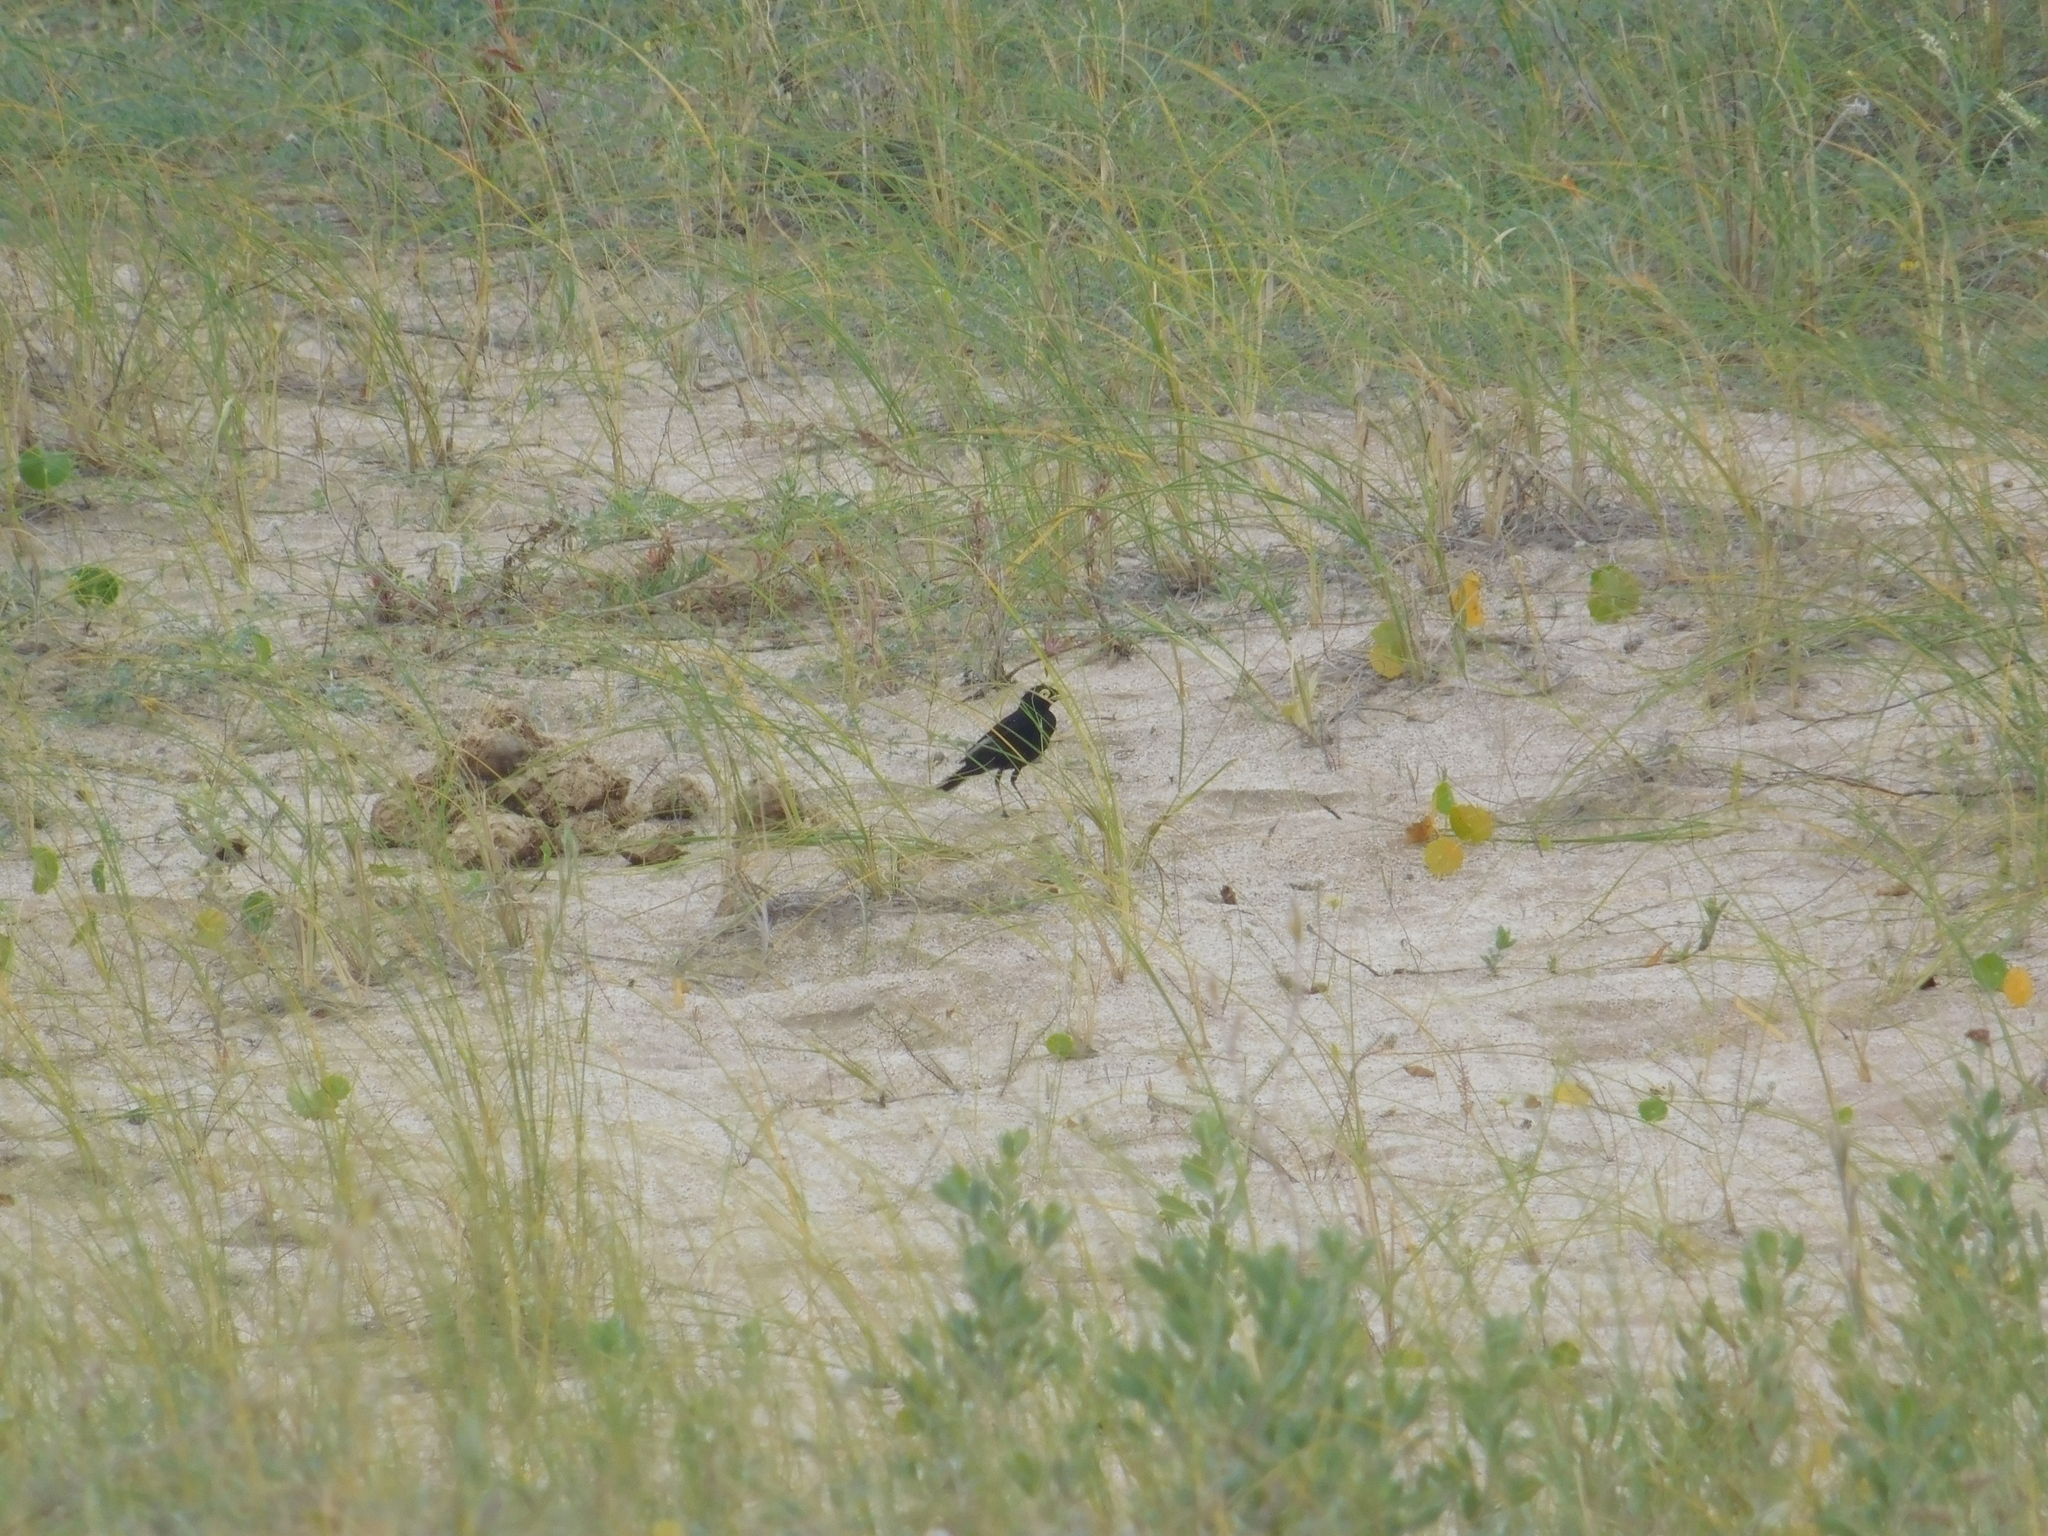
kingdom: Animalia
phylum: Chordata
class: Aves
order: Passeriformes
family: Tyrannidae
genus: Hymenops
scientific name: Hymenops perspicillatus
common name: Spectacled tyrant
